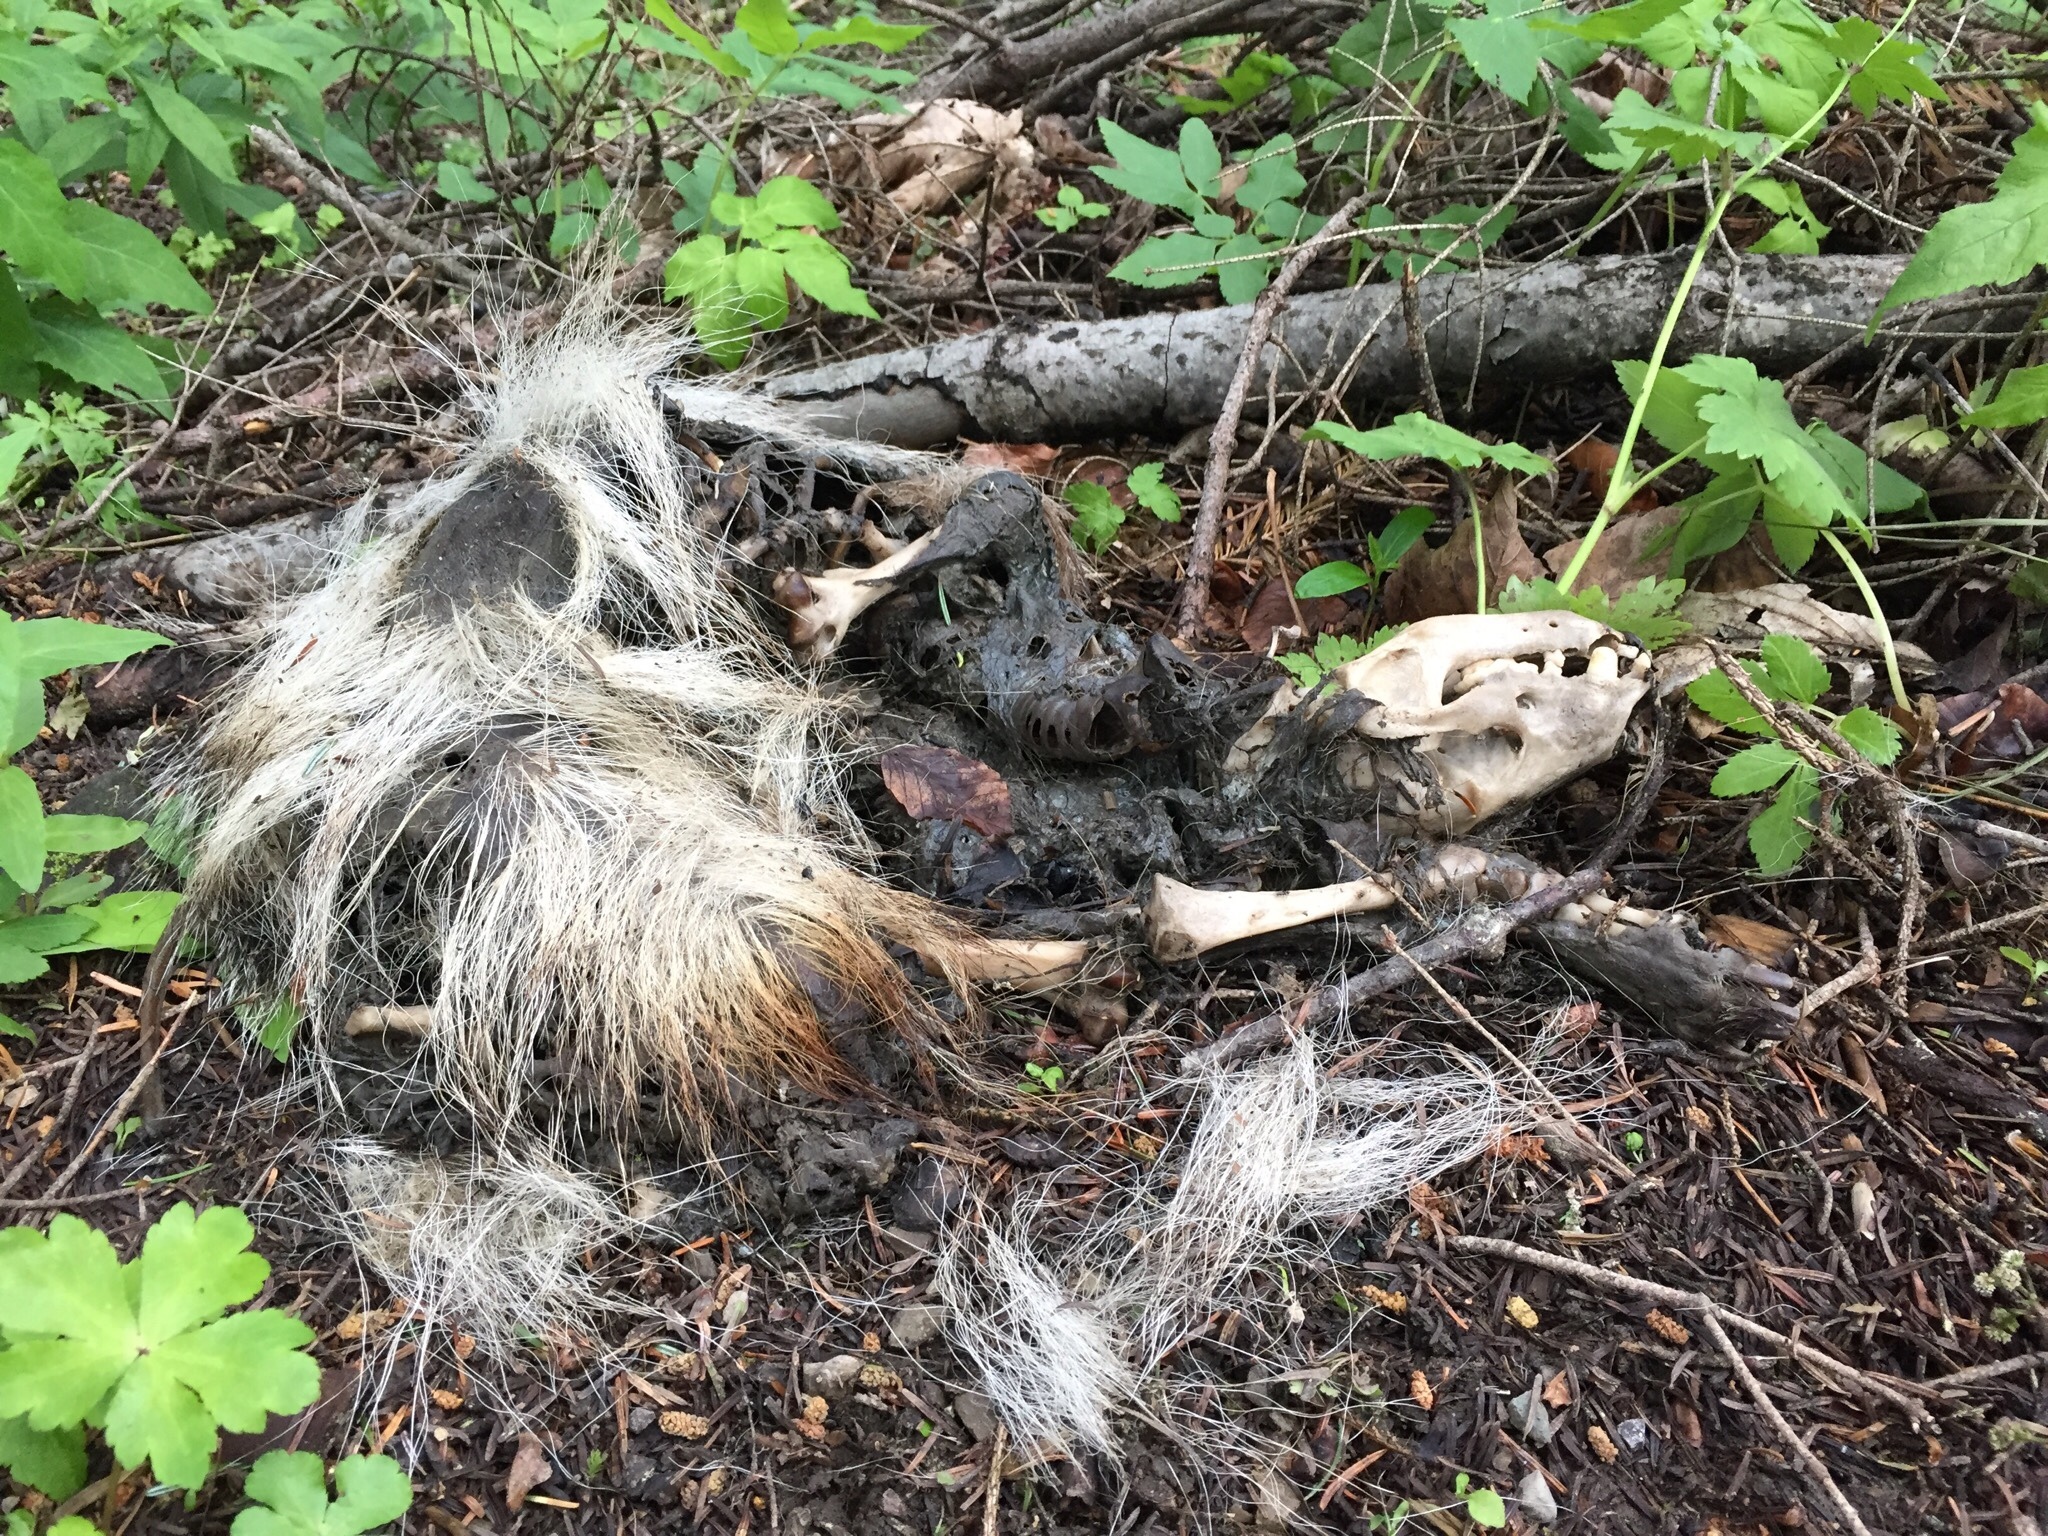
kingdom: Animalia
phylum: Chordata
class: Mammalia
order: Carnivora
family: Mustelidae
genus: Meles
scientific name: Meles meles
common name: Eurasian badger
